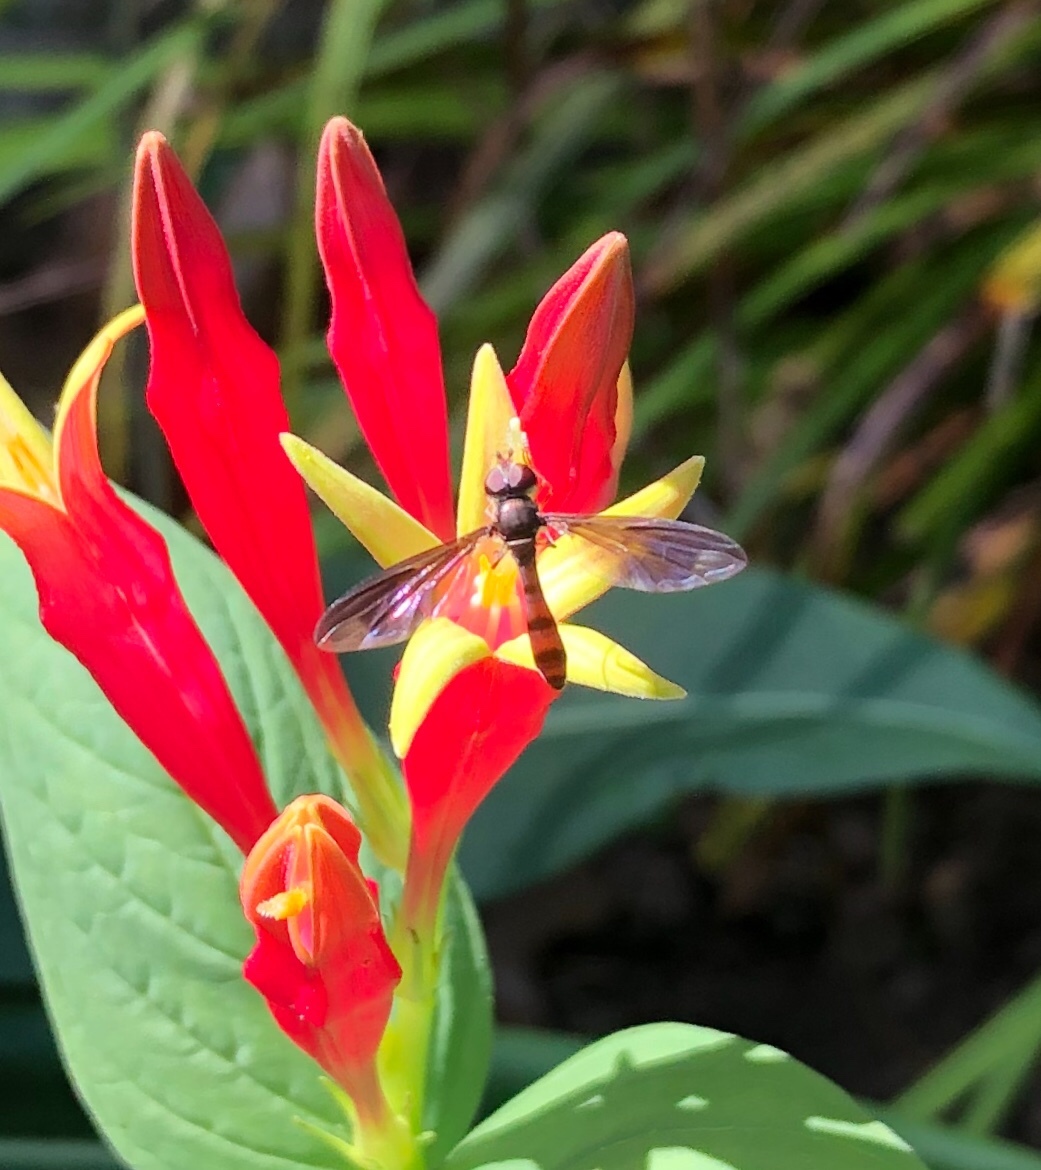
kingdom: Animalia
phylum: Arthropoda
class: Insecta
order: Diptera
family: Syrphidae
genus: Ocyptamus
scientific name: Ocyptamus fuscipennis
